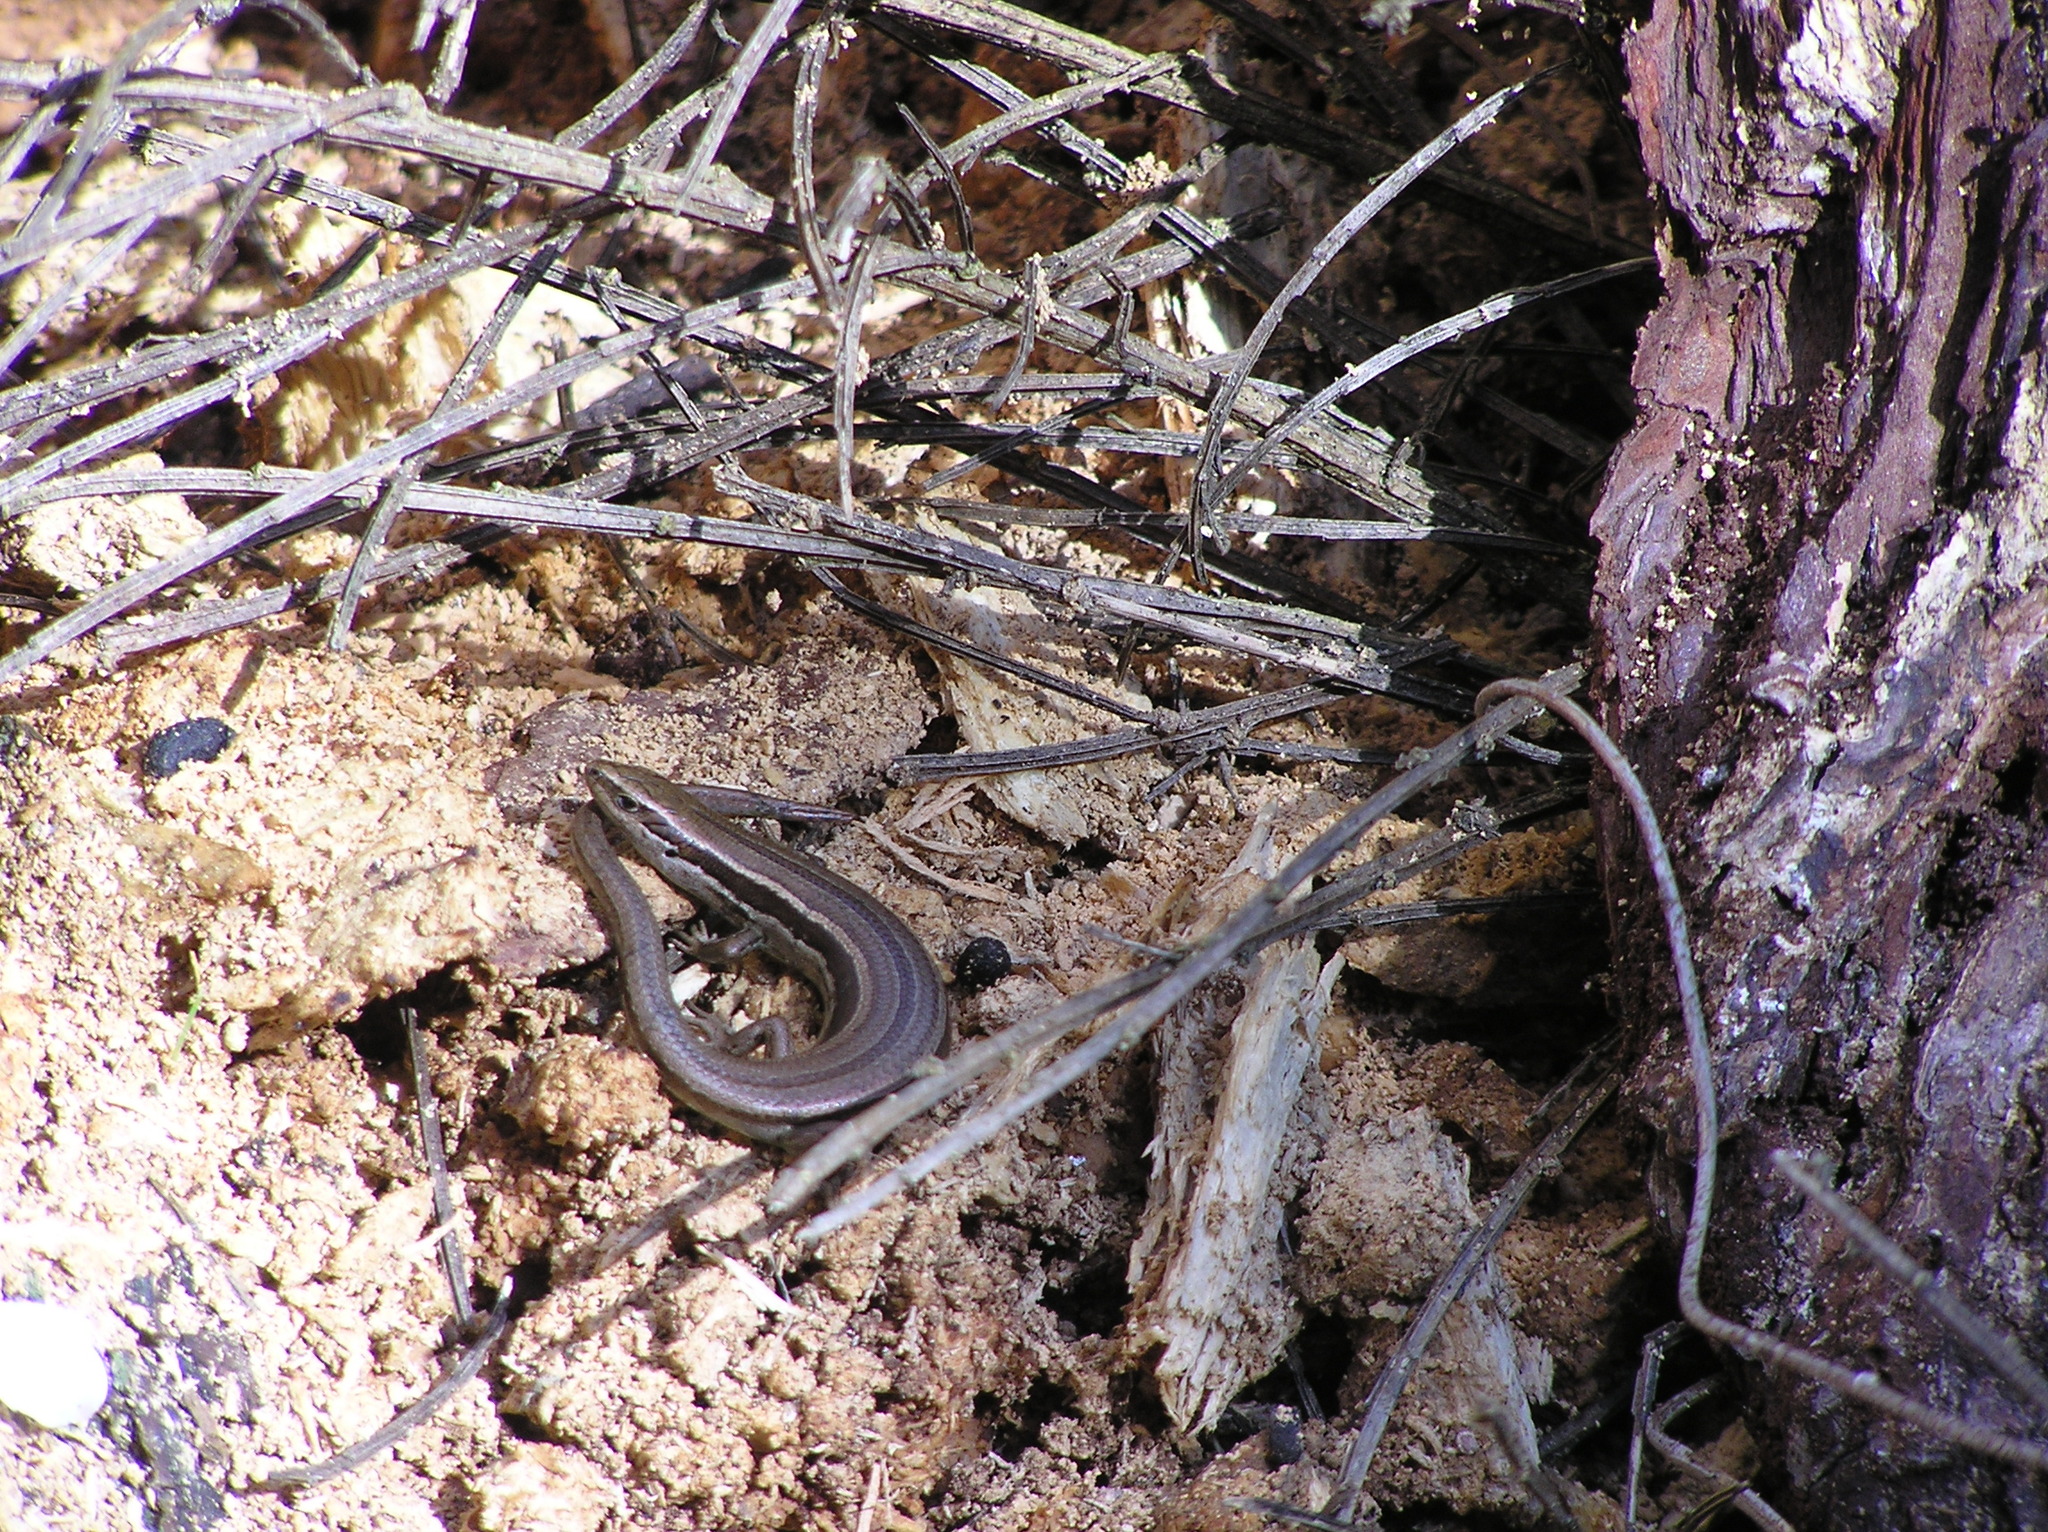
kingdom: Animalia
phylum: Chordata
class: Squamata
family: Scincidae
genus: Oligosoma
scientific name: Oligosoma polychroma
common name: Common new zealand skink
